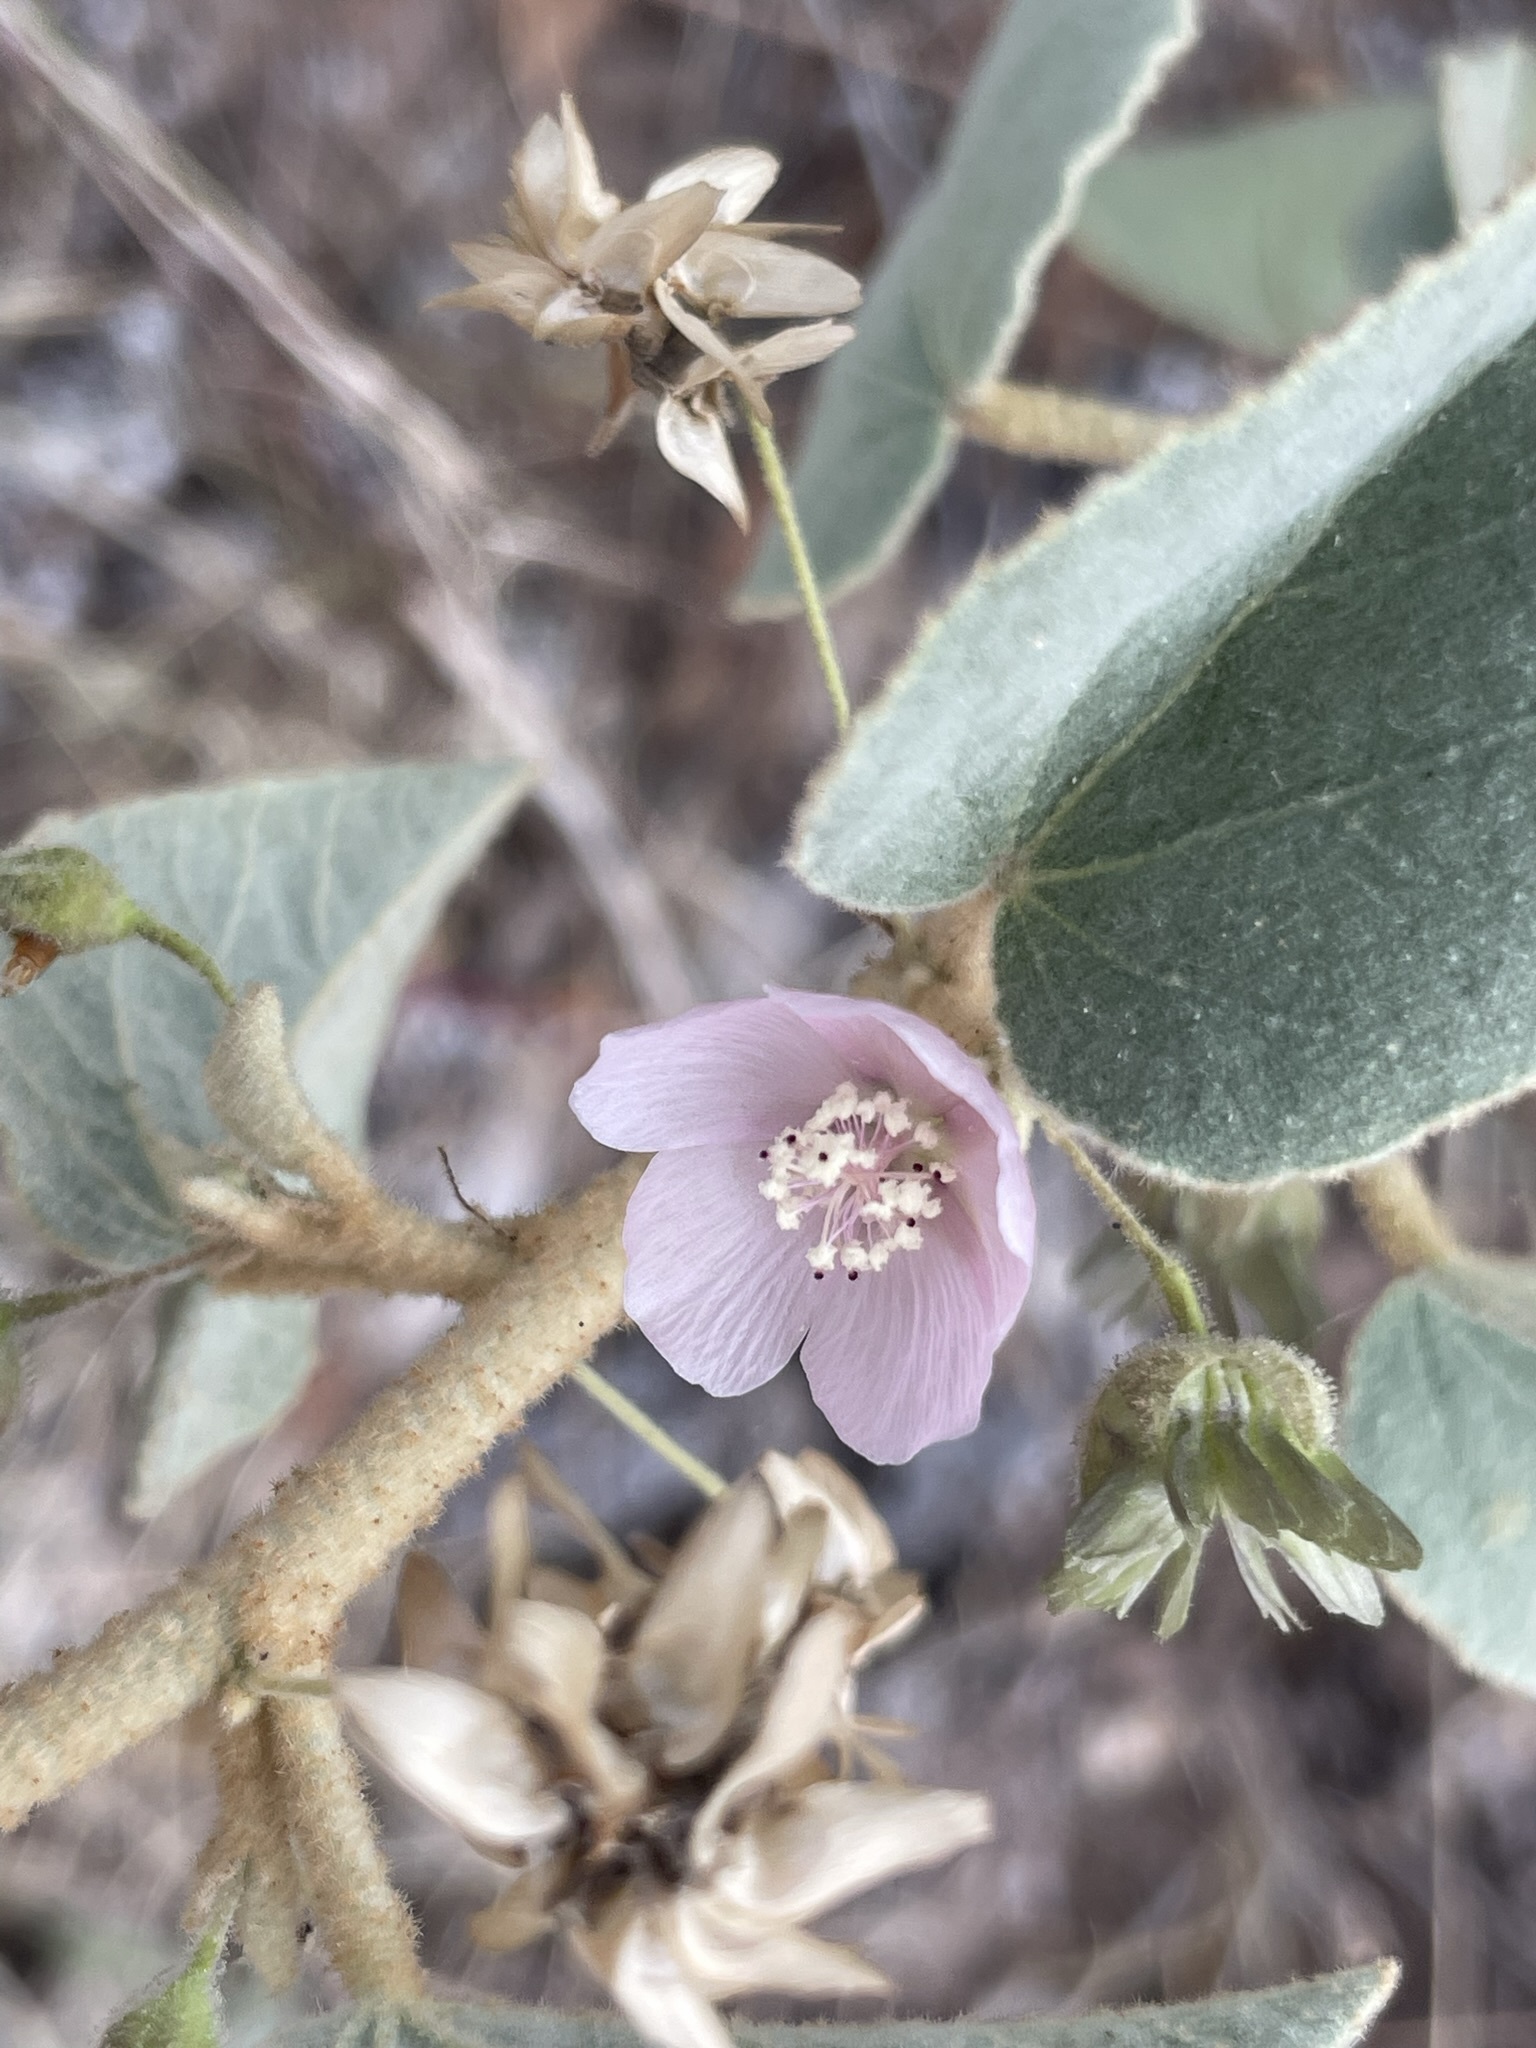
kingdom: Plantae
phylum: Tracheophyta
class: Magnoliopsida
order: Malvales
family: Malvaceae
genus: Horsfordia
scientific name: Horsfordia alata
